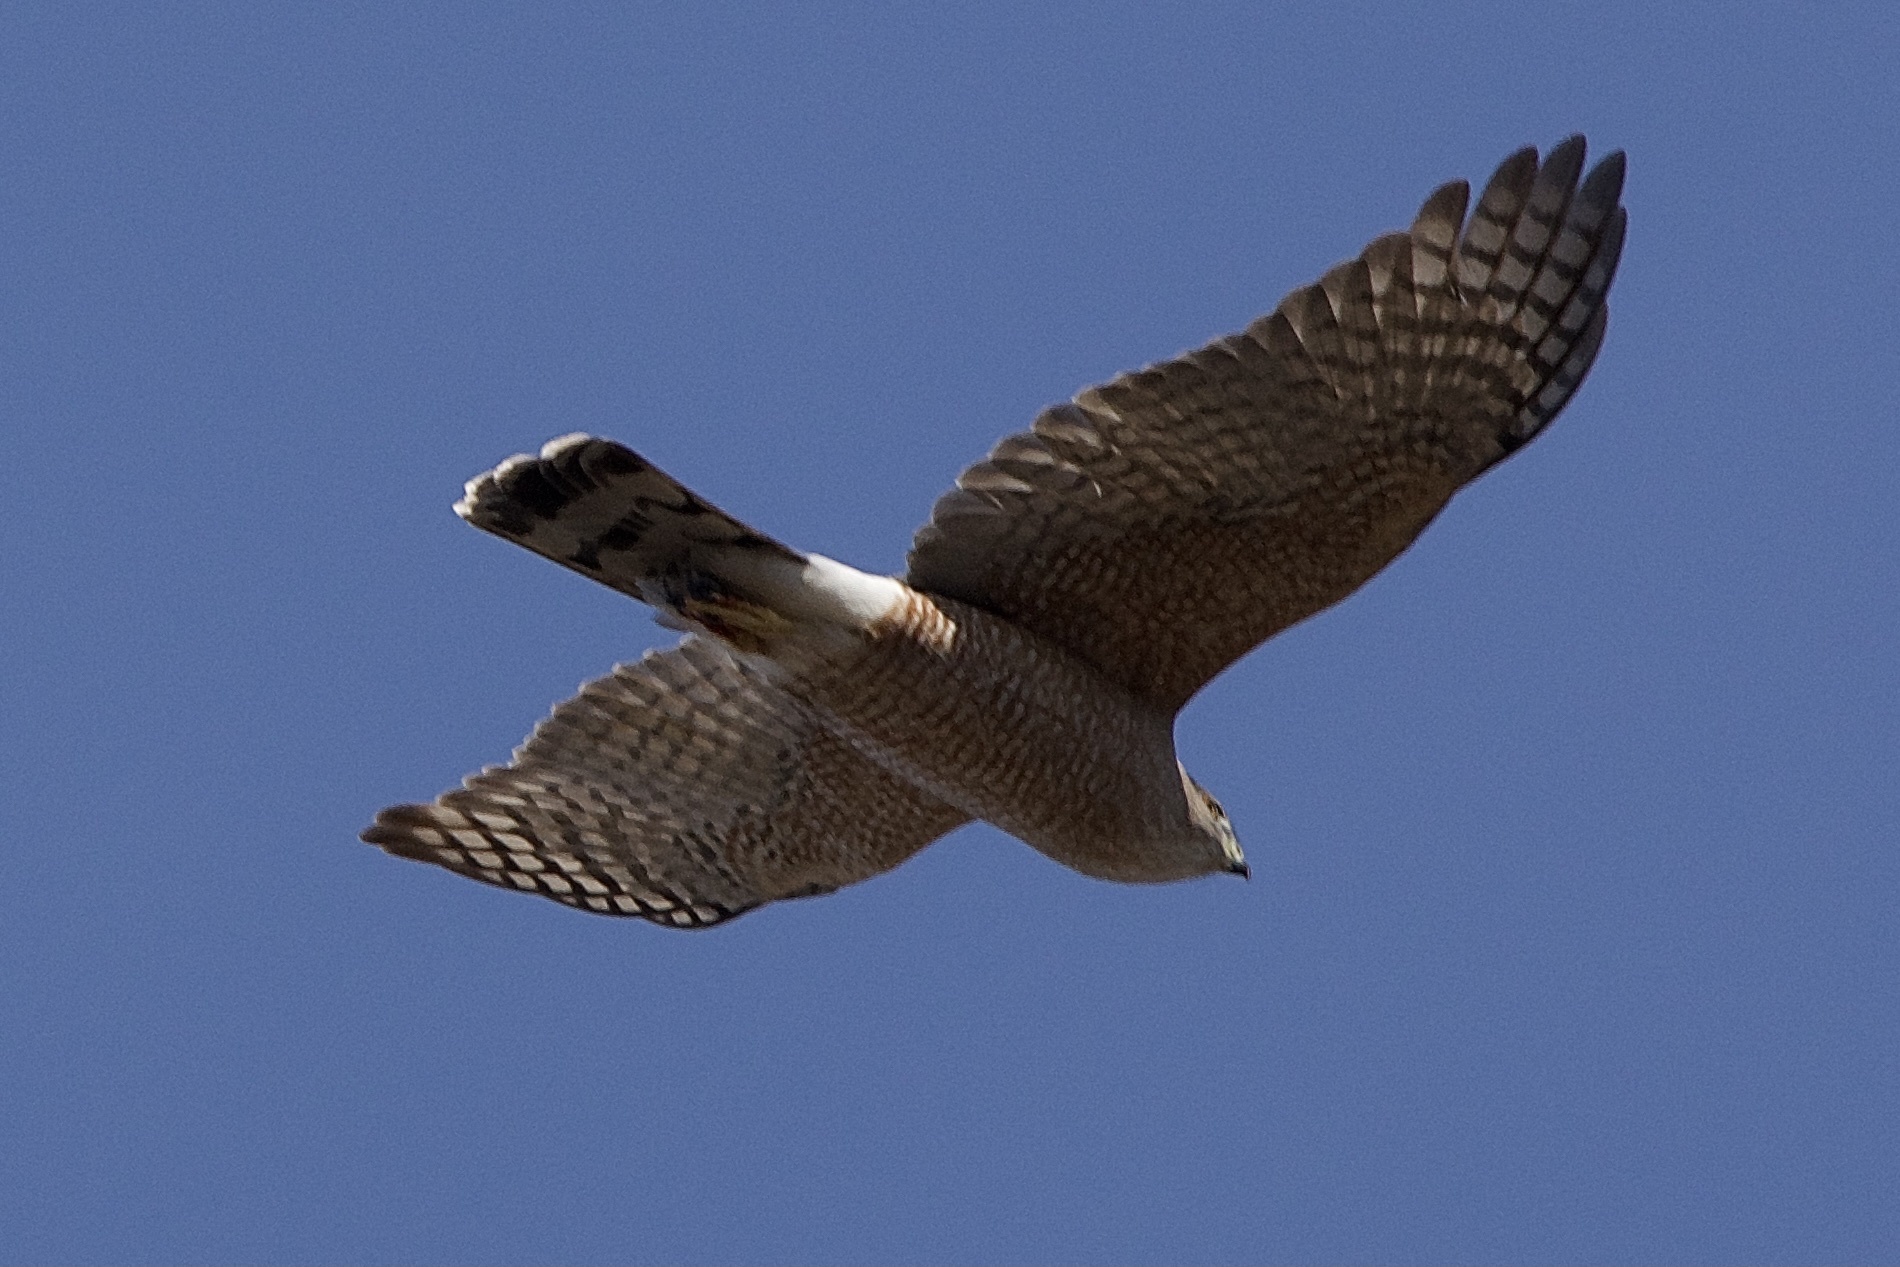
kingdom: Animalia
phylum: Chordata
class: Aves
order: Accipitriformes
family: Accipitridae
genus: Accipiter
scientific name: Accipiter cooperii
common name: Cooper's hawk
